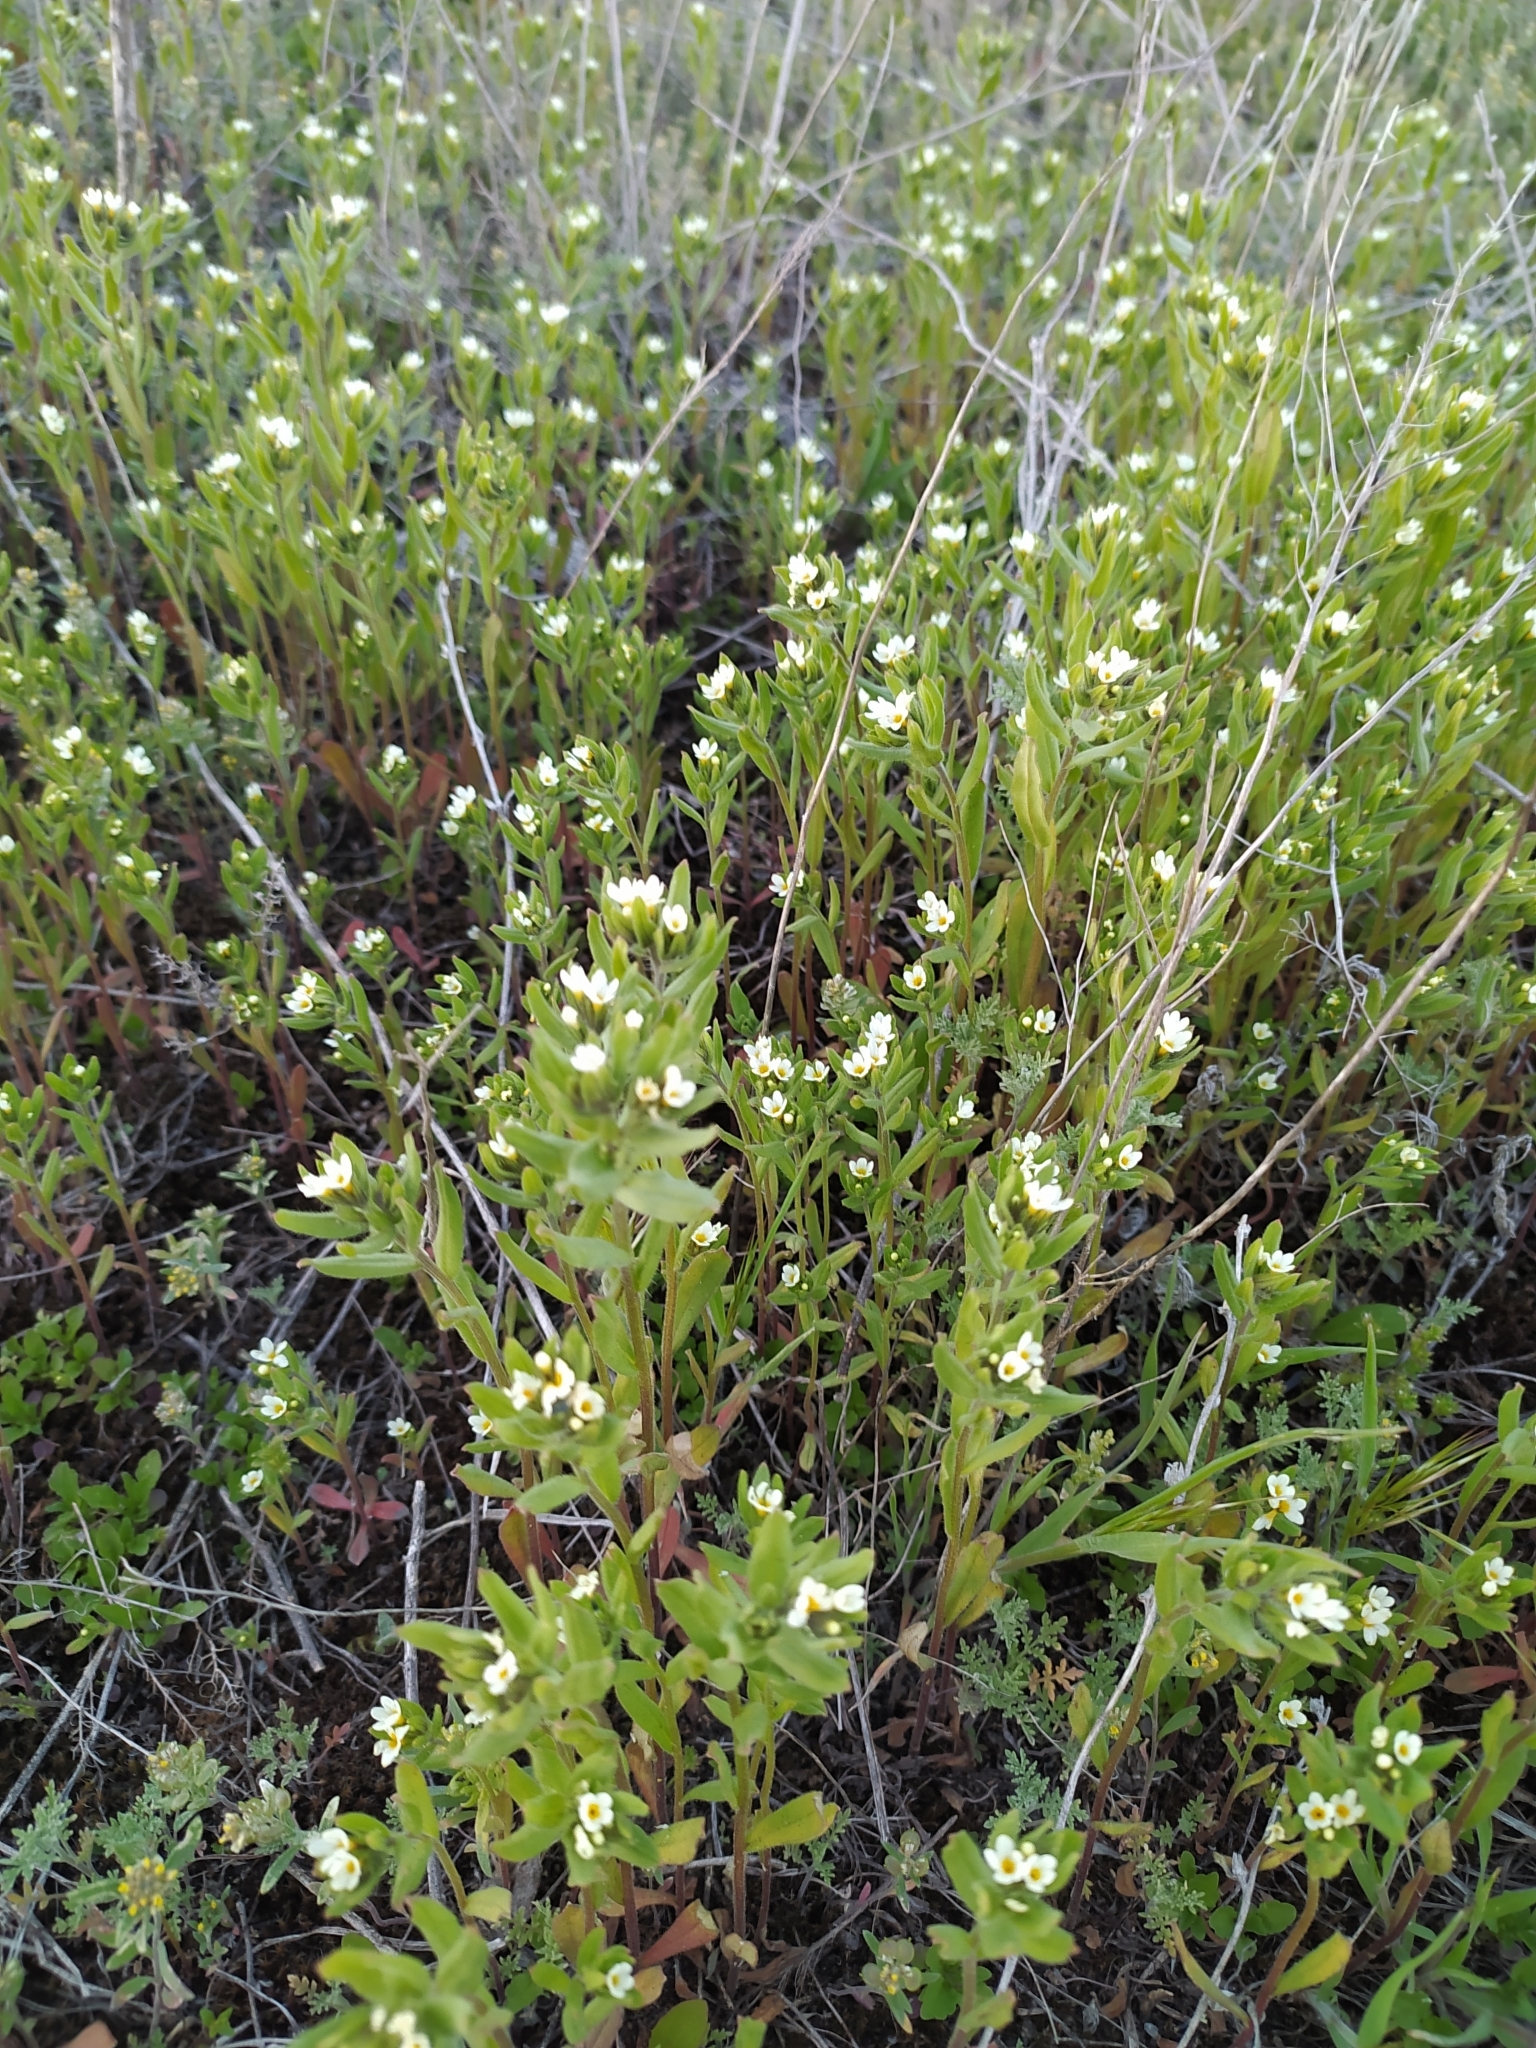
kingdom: Plantae
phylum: Tracheophyta
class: Magnoliopsida
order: Boraginales
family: Boraginaceae
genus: Buglossoides
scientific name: Buglossoides czernjajevii
